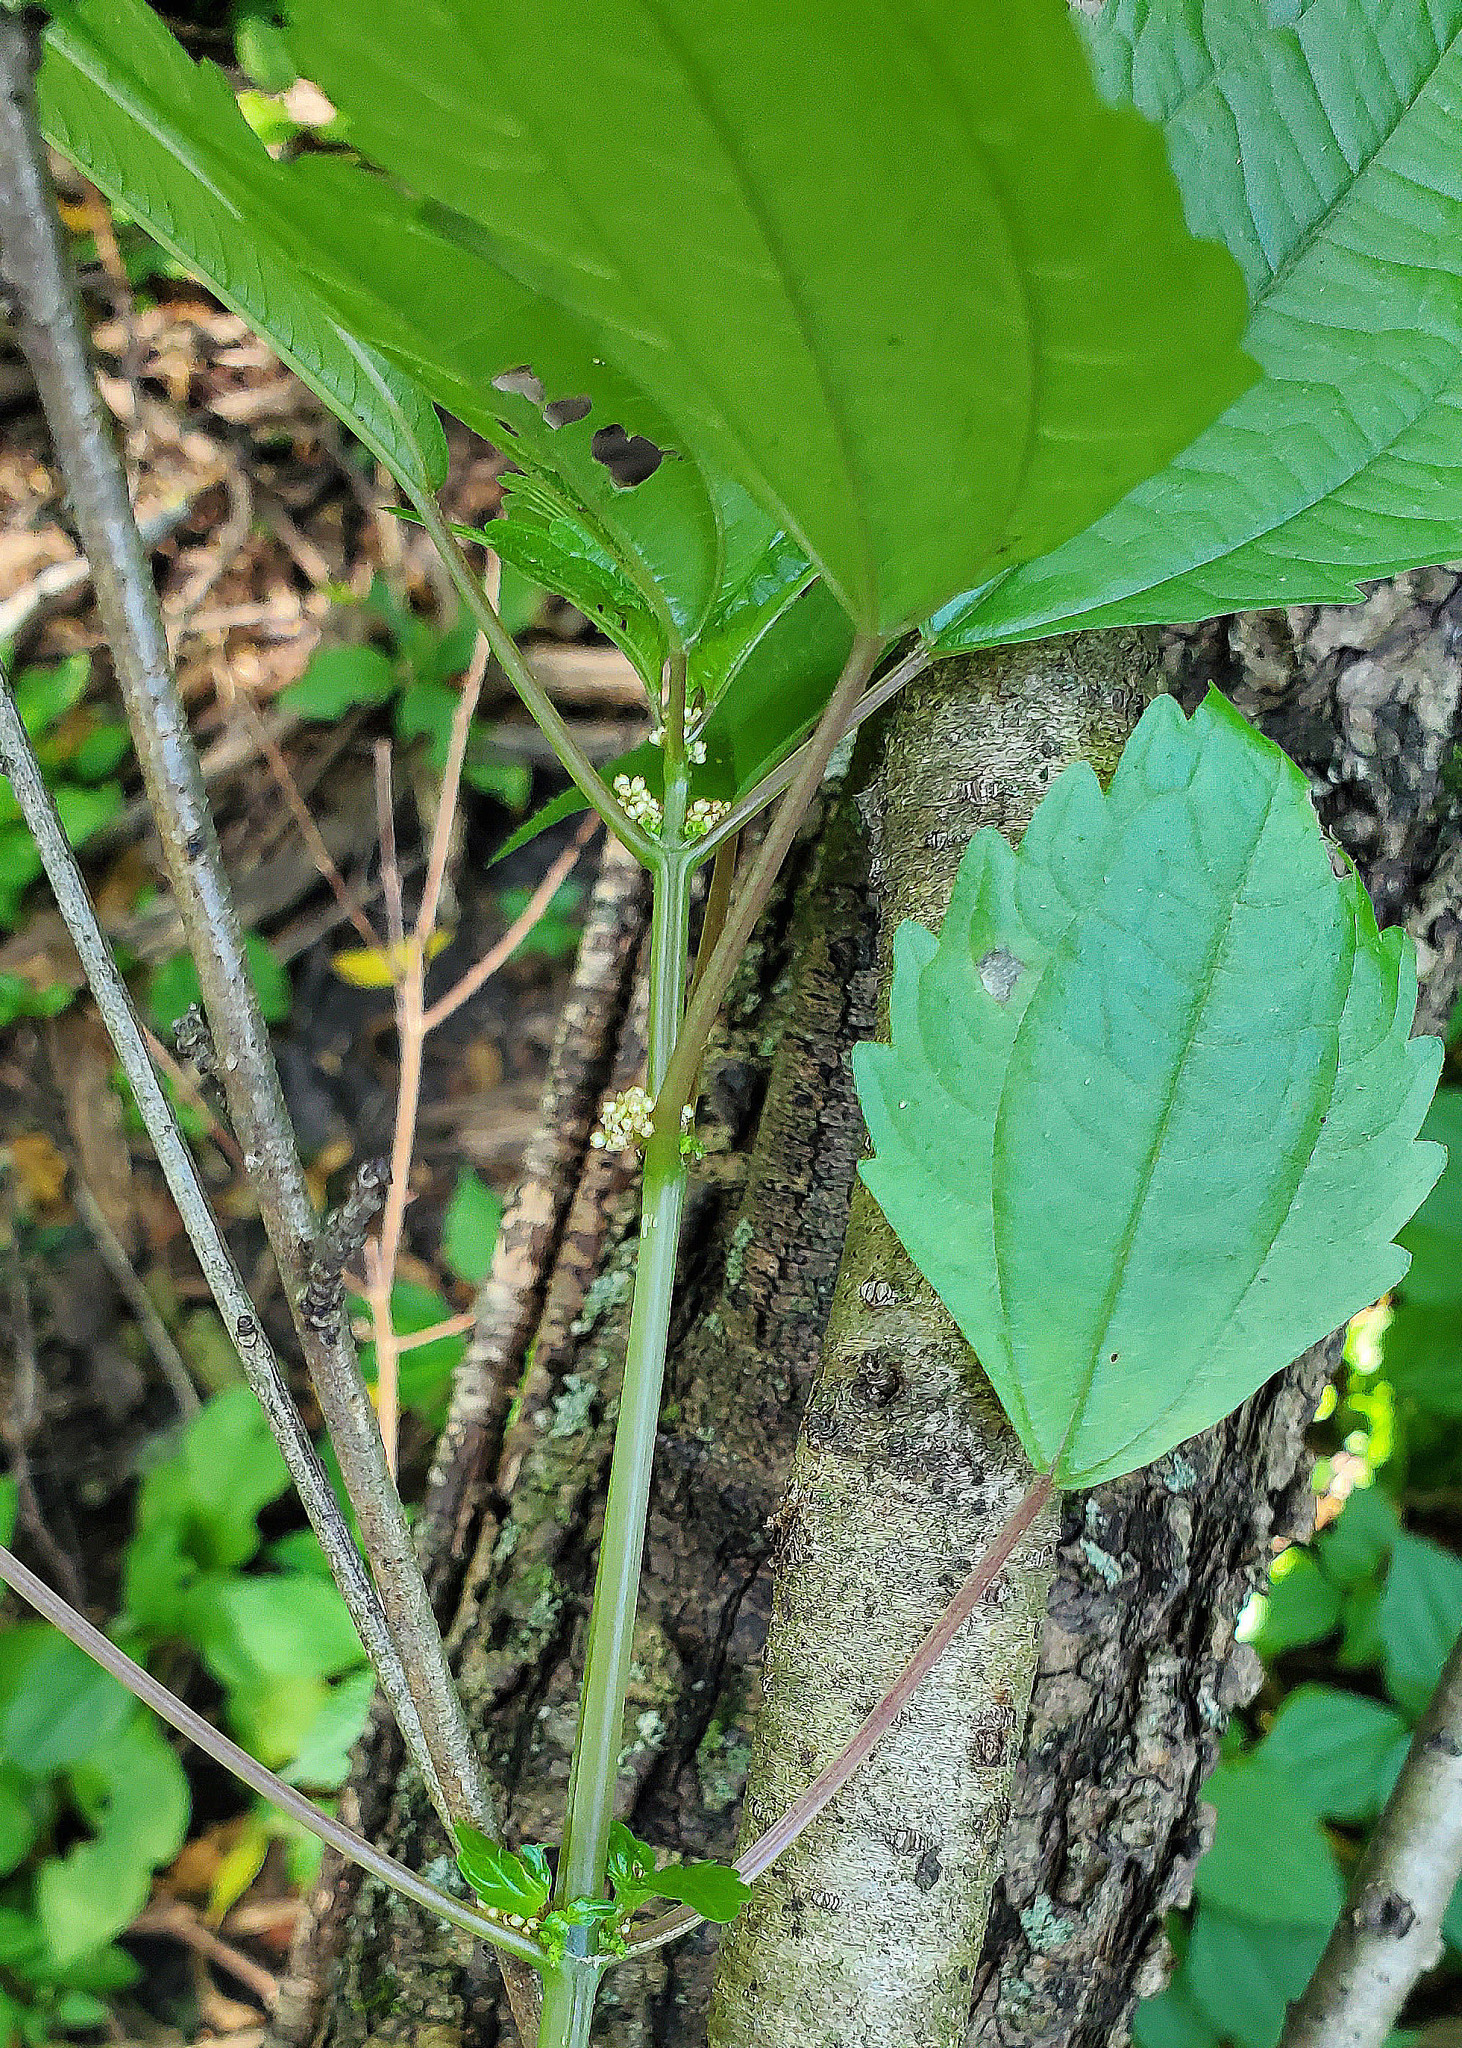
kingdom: Plantae
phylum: Tracheophyta
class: Magnoliopsida
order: Rosales
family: Urticaceae
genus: Pilea
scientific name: Pilea pumila
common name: Clearweed
